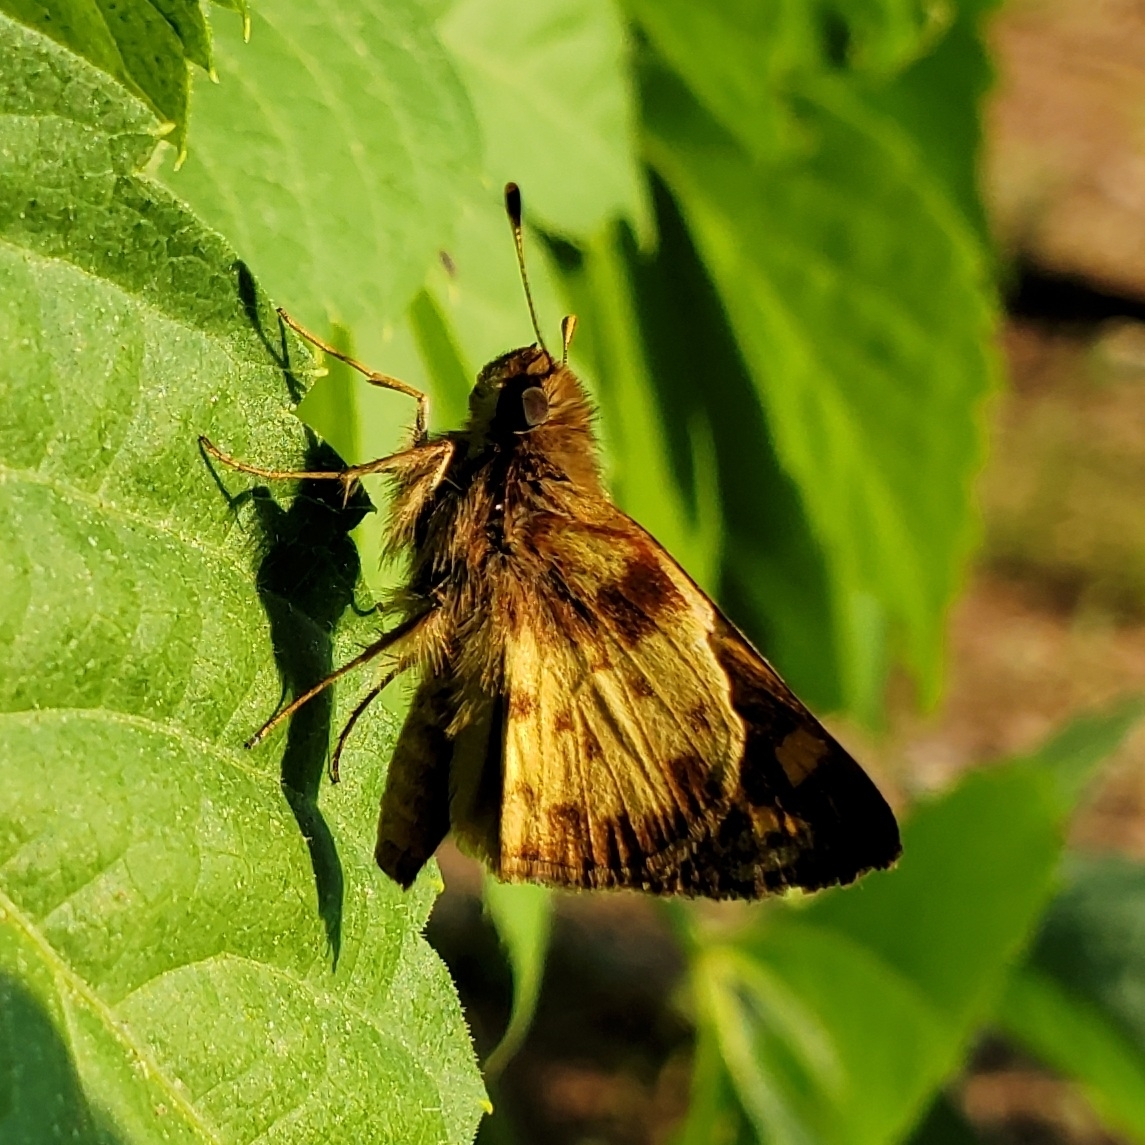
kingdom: Animalia
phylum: Arthropoda
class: Insecta
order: Lepidoptera
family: Hesperiidae
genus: Lon
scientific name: Lon zabulon
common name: Zabulon skipper
